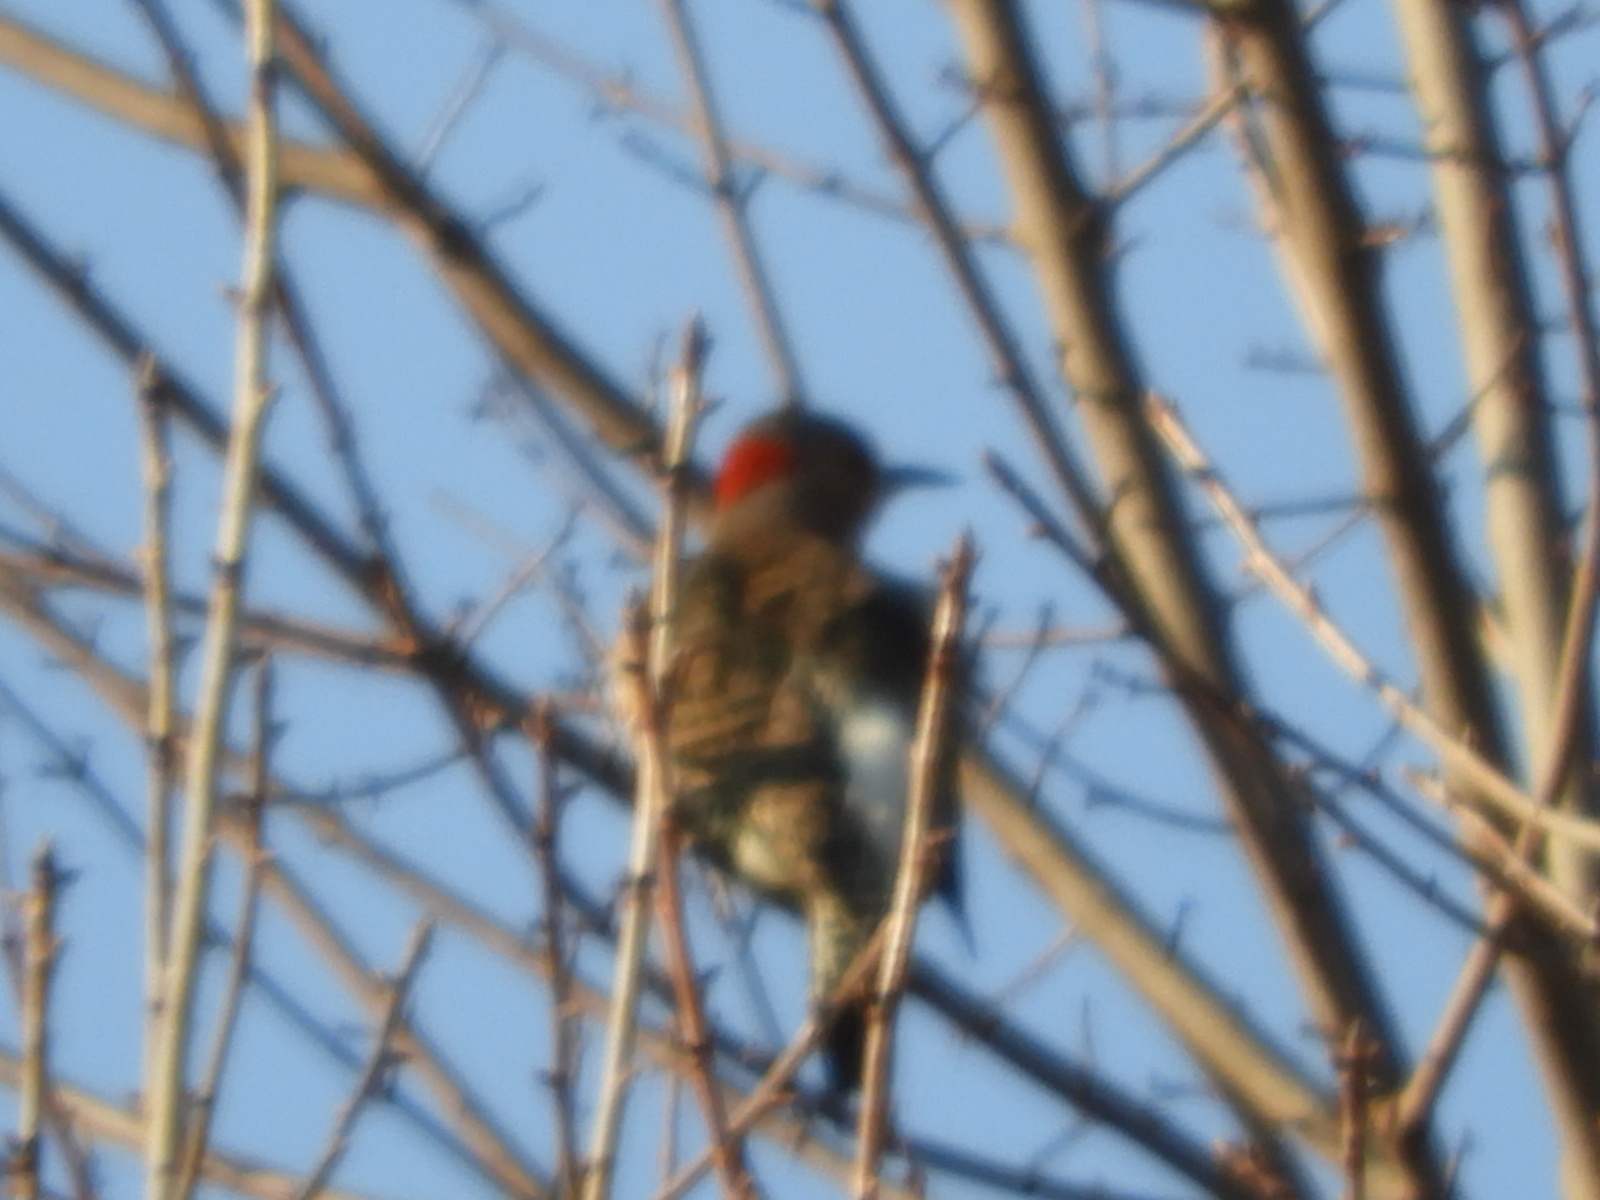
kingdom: Animalia
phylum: Chordata
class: Aves
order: Piciformes
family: Picidae
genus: Colaptes
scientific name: Colaptes auratus
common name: Northern flicker
